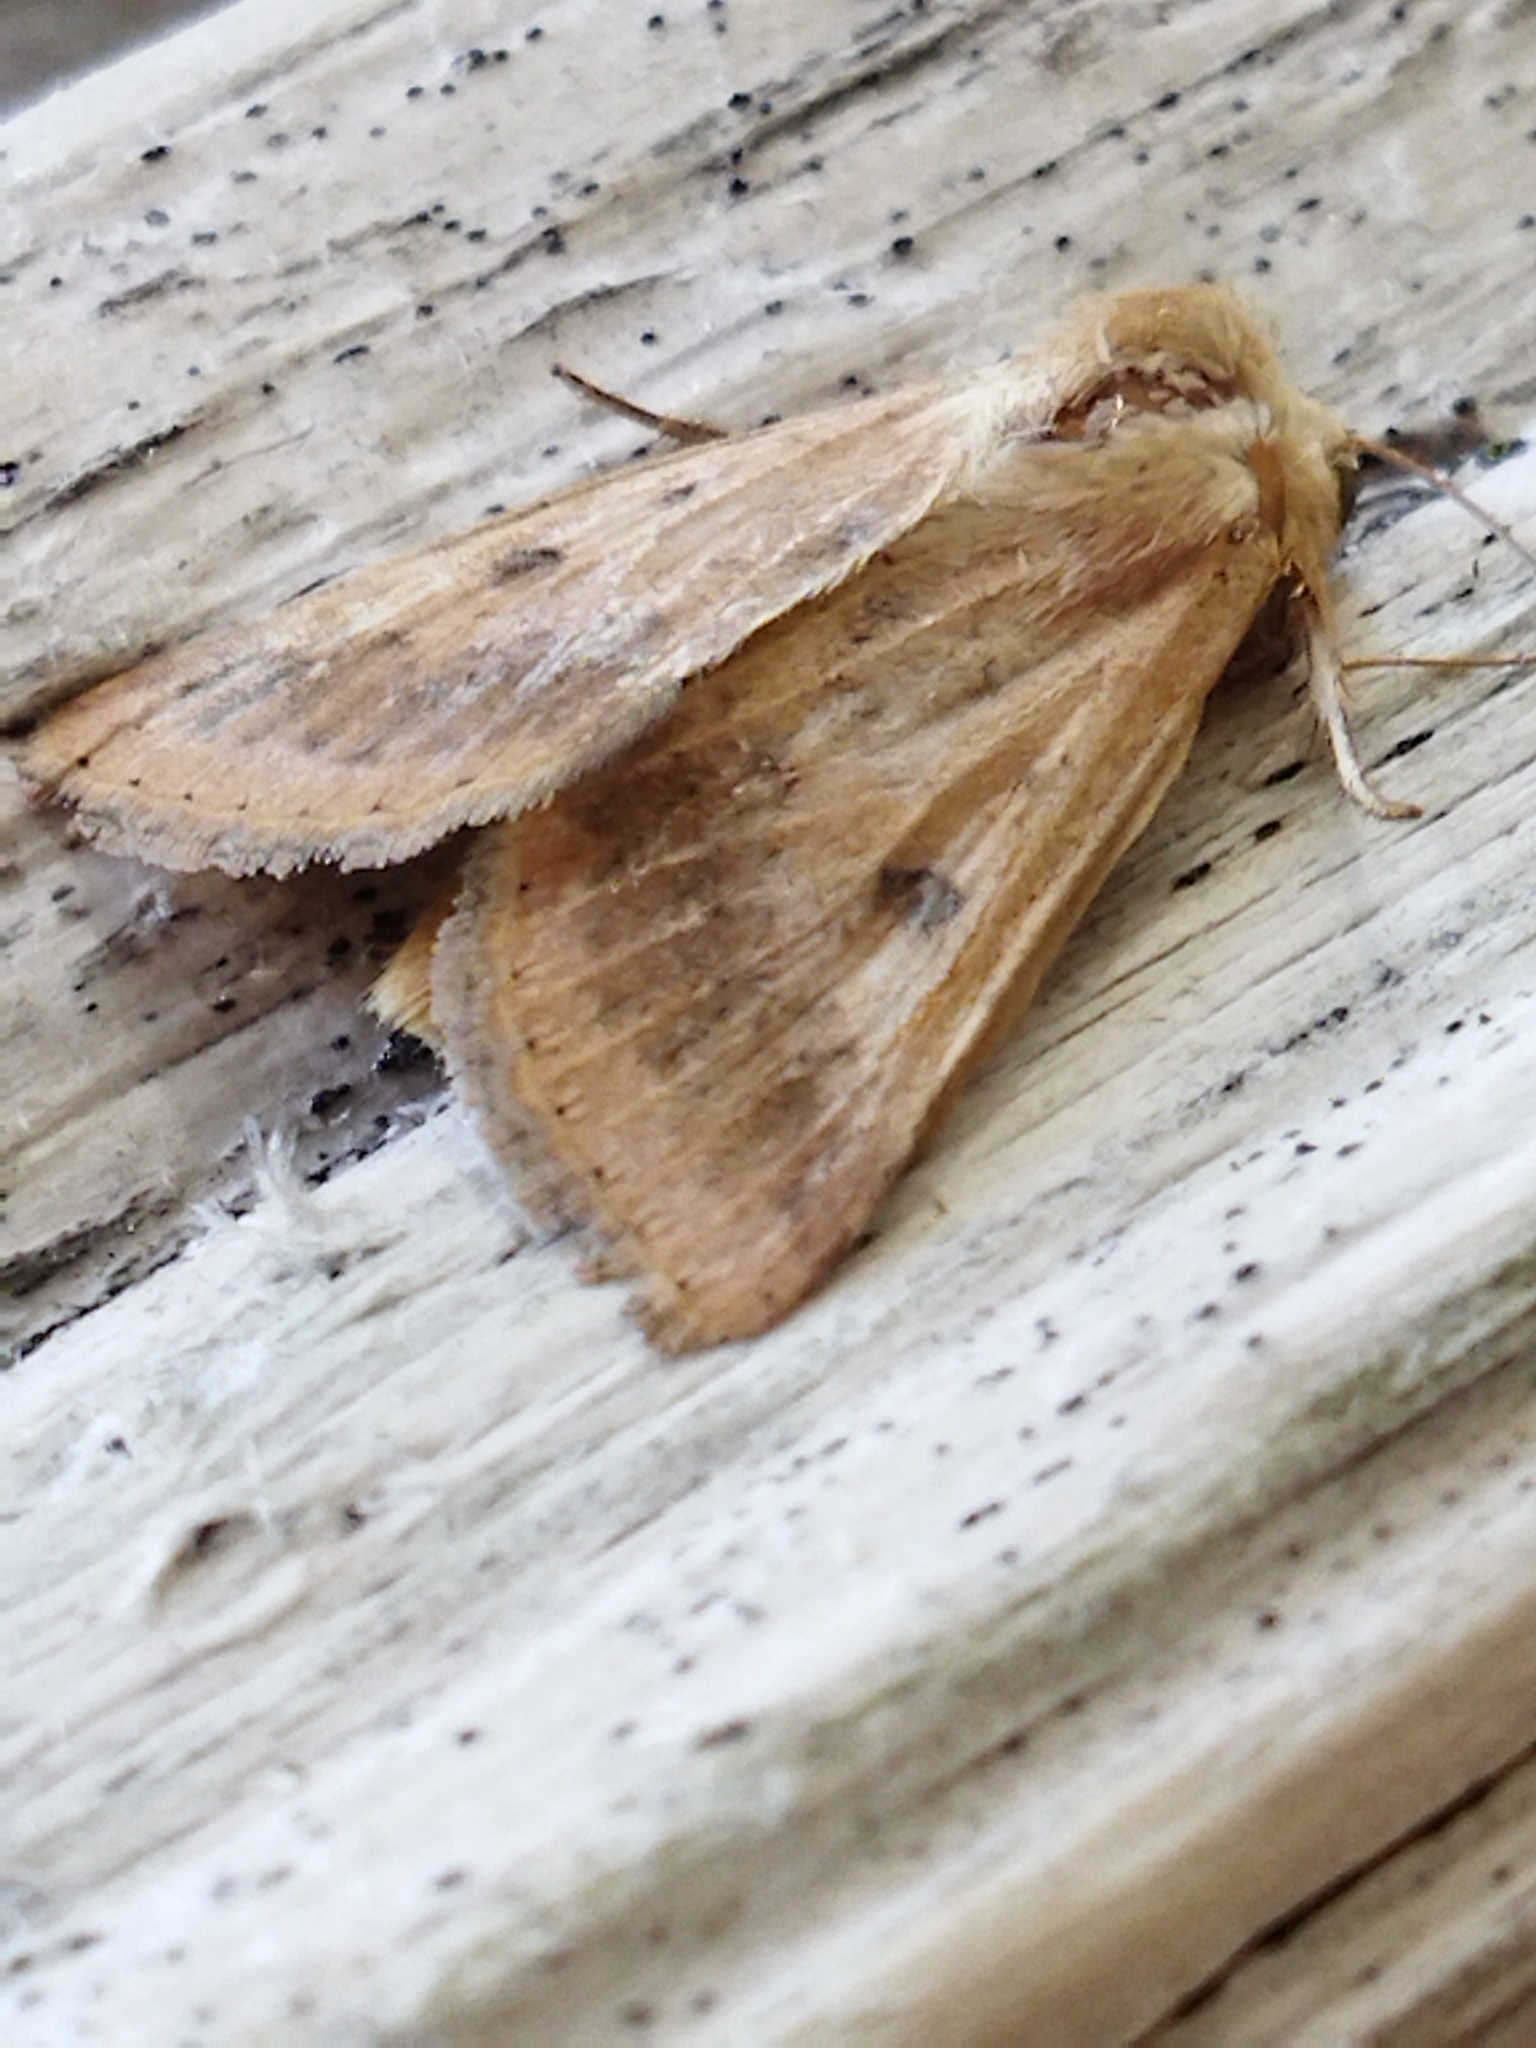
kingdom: Animalia
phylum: Arthropoda
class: Insecta
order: Lepidoptera
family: Noctuidae
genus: Helicoverpa
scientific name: Helicoverpa armigera
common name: Cotton bollworm
